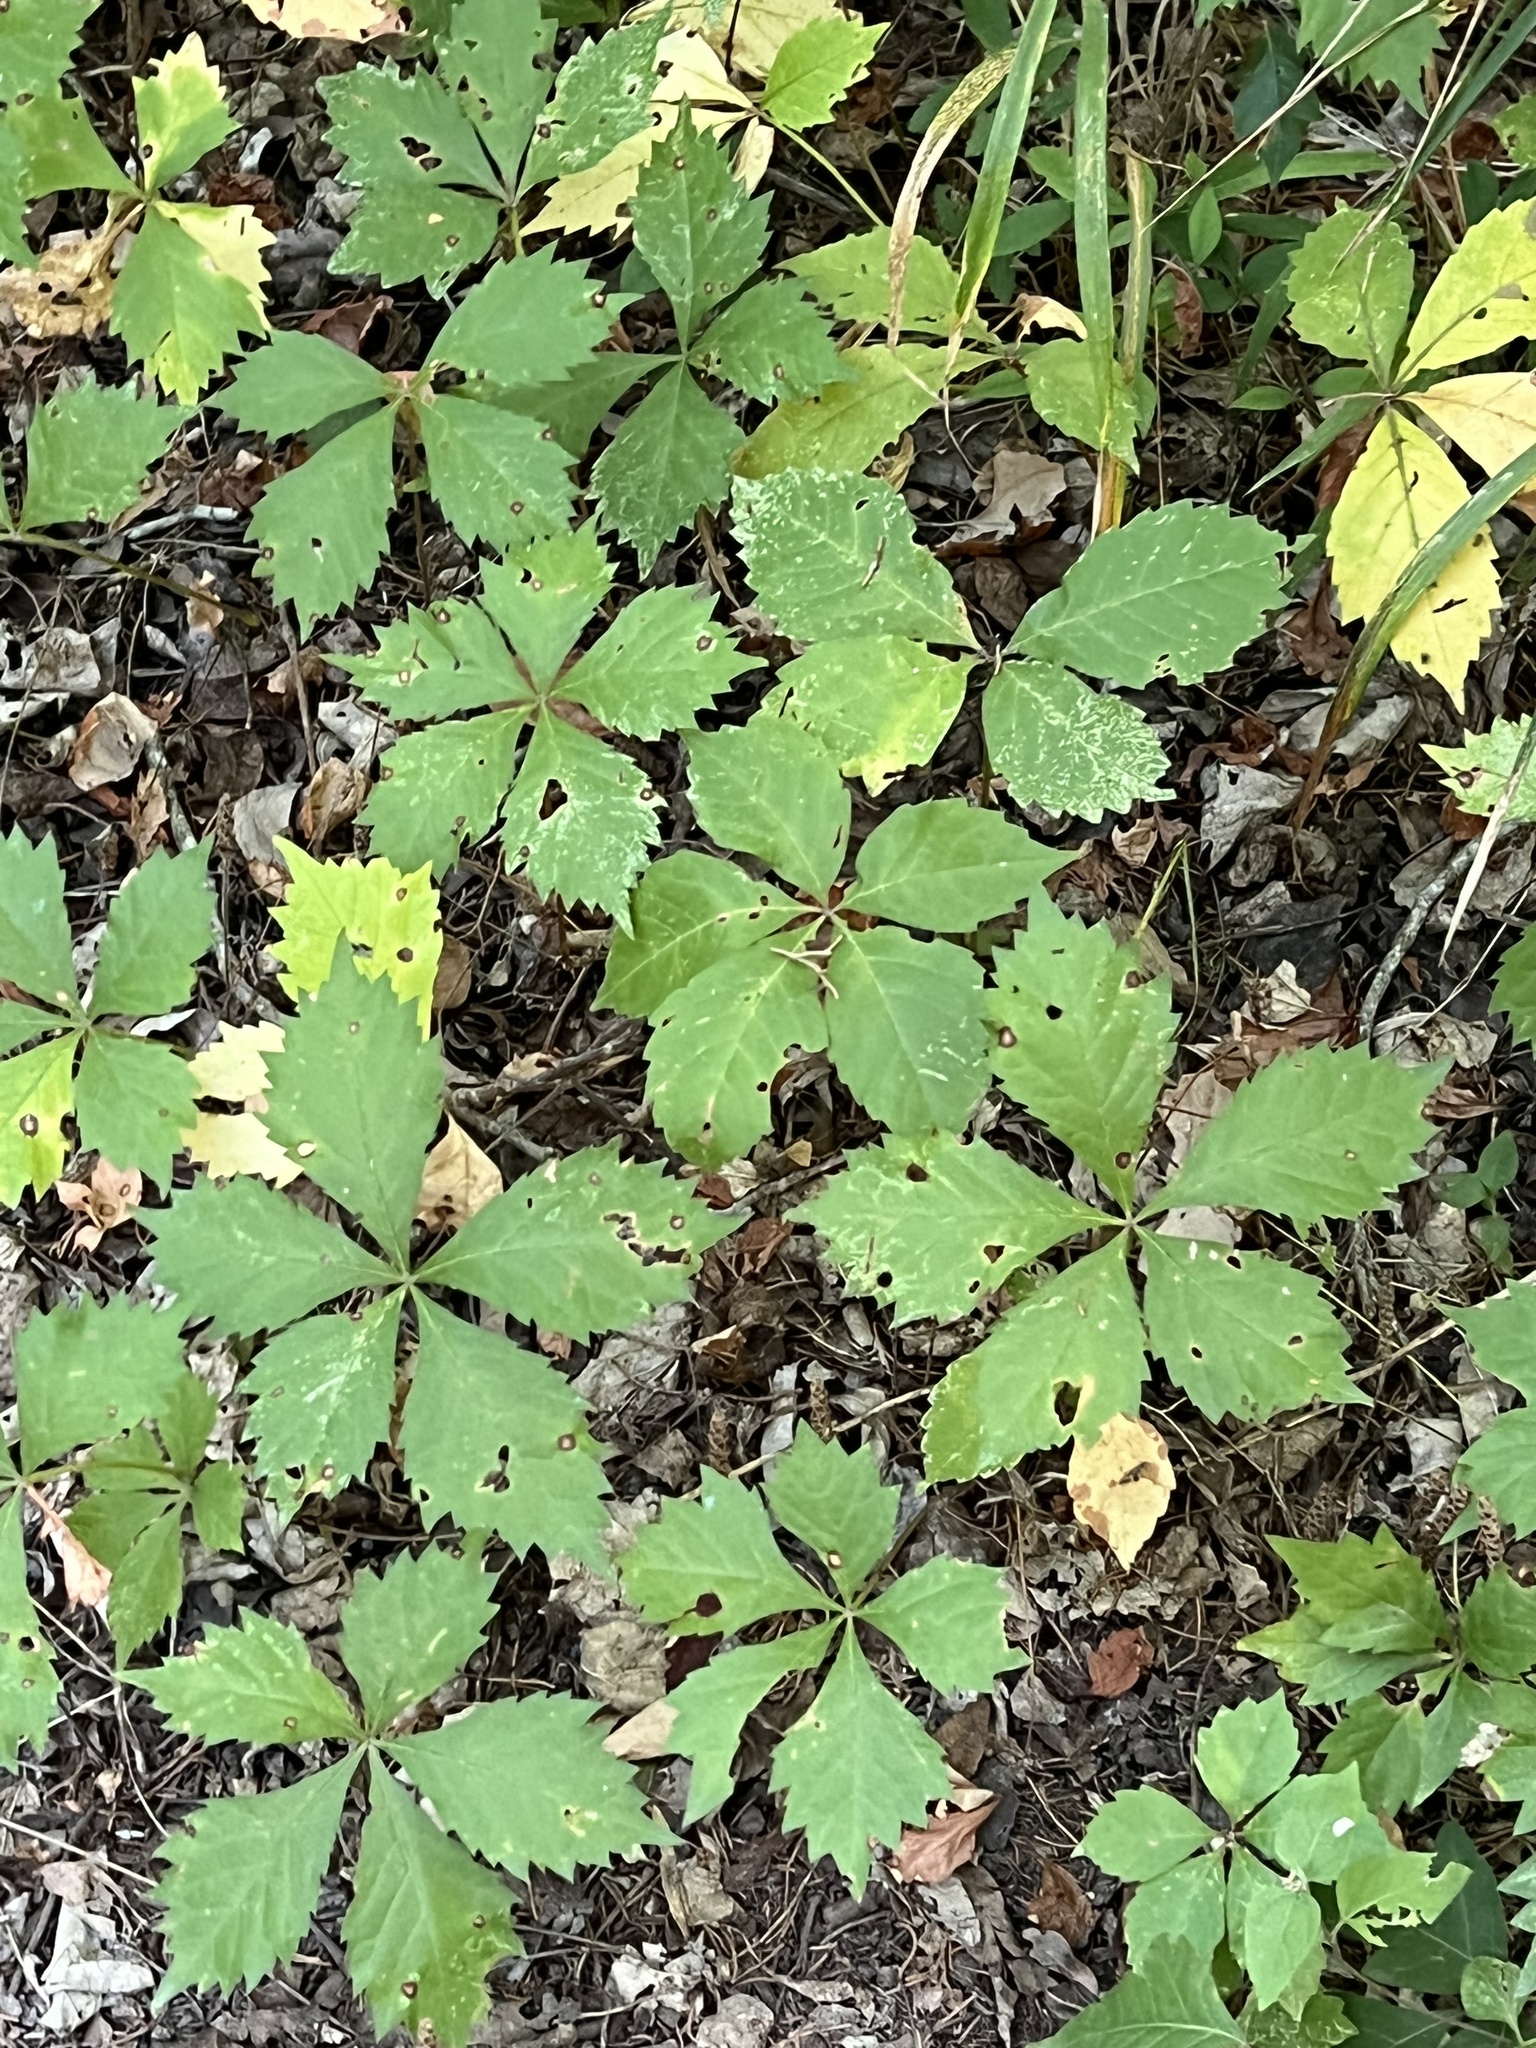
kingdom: Plantae
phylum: Tracheophyta
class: Magnoliopsida
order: Vitales
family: Vitaceae
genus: Parthenocissus
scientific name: Parthenocissus quinquefolia
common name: Virginia-creeper
